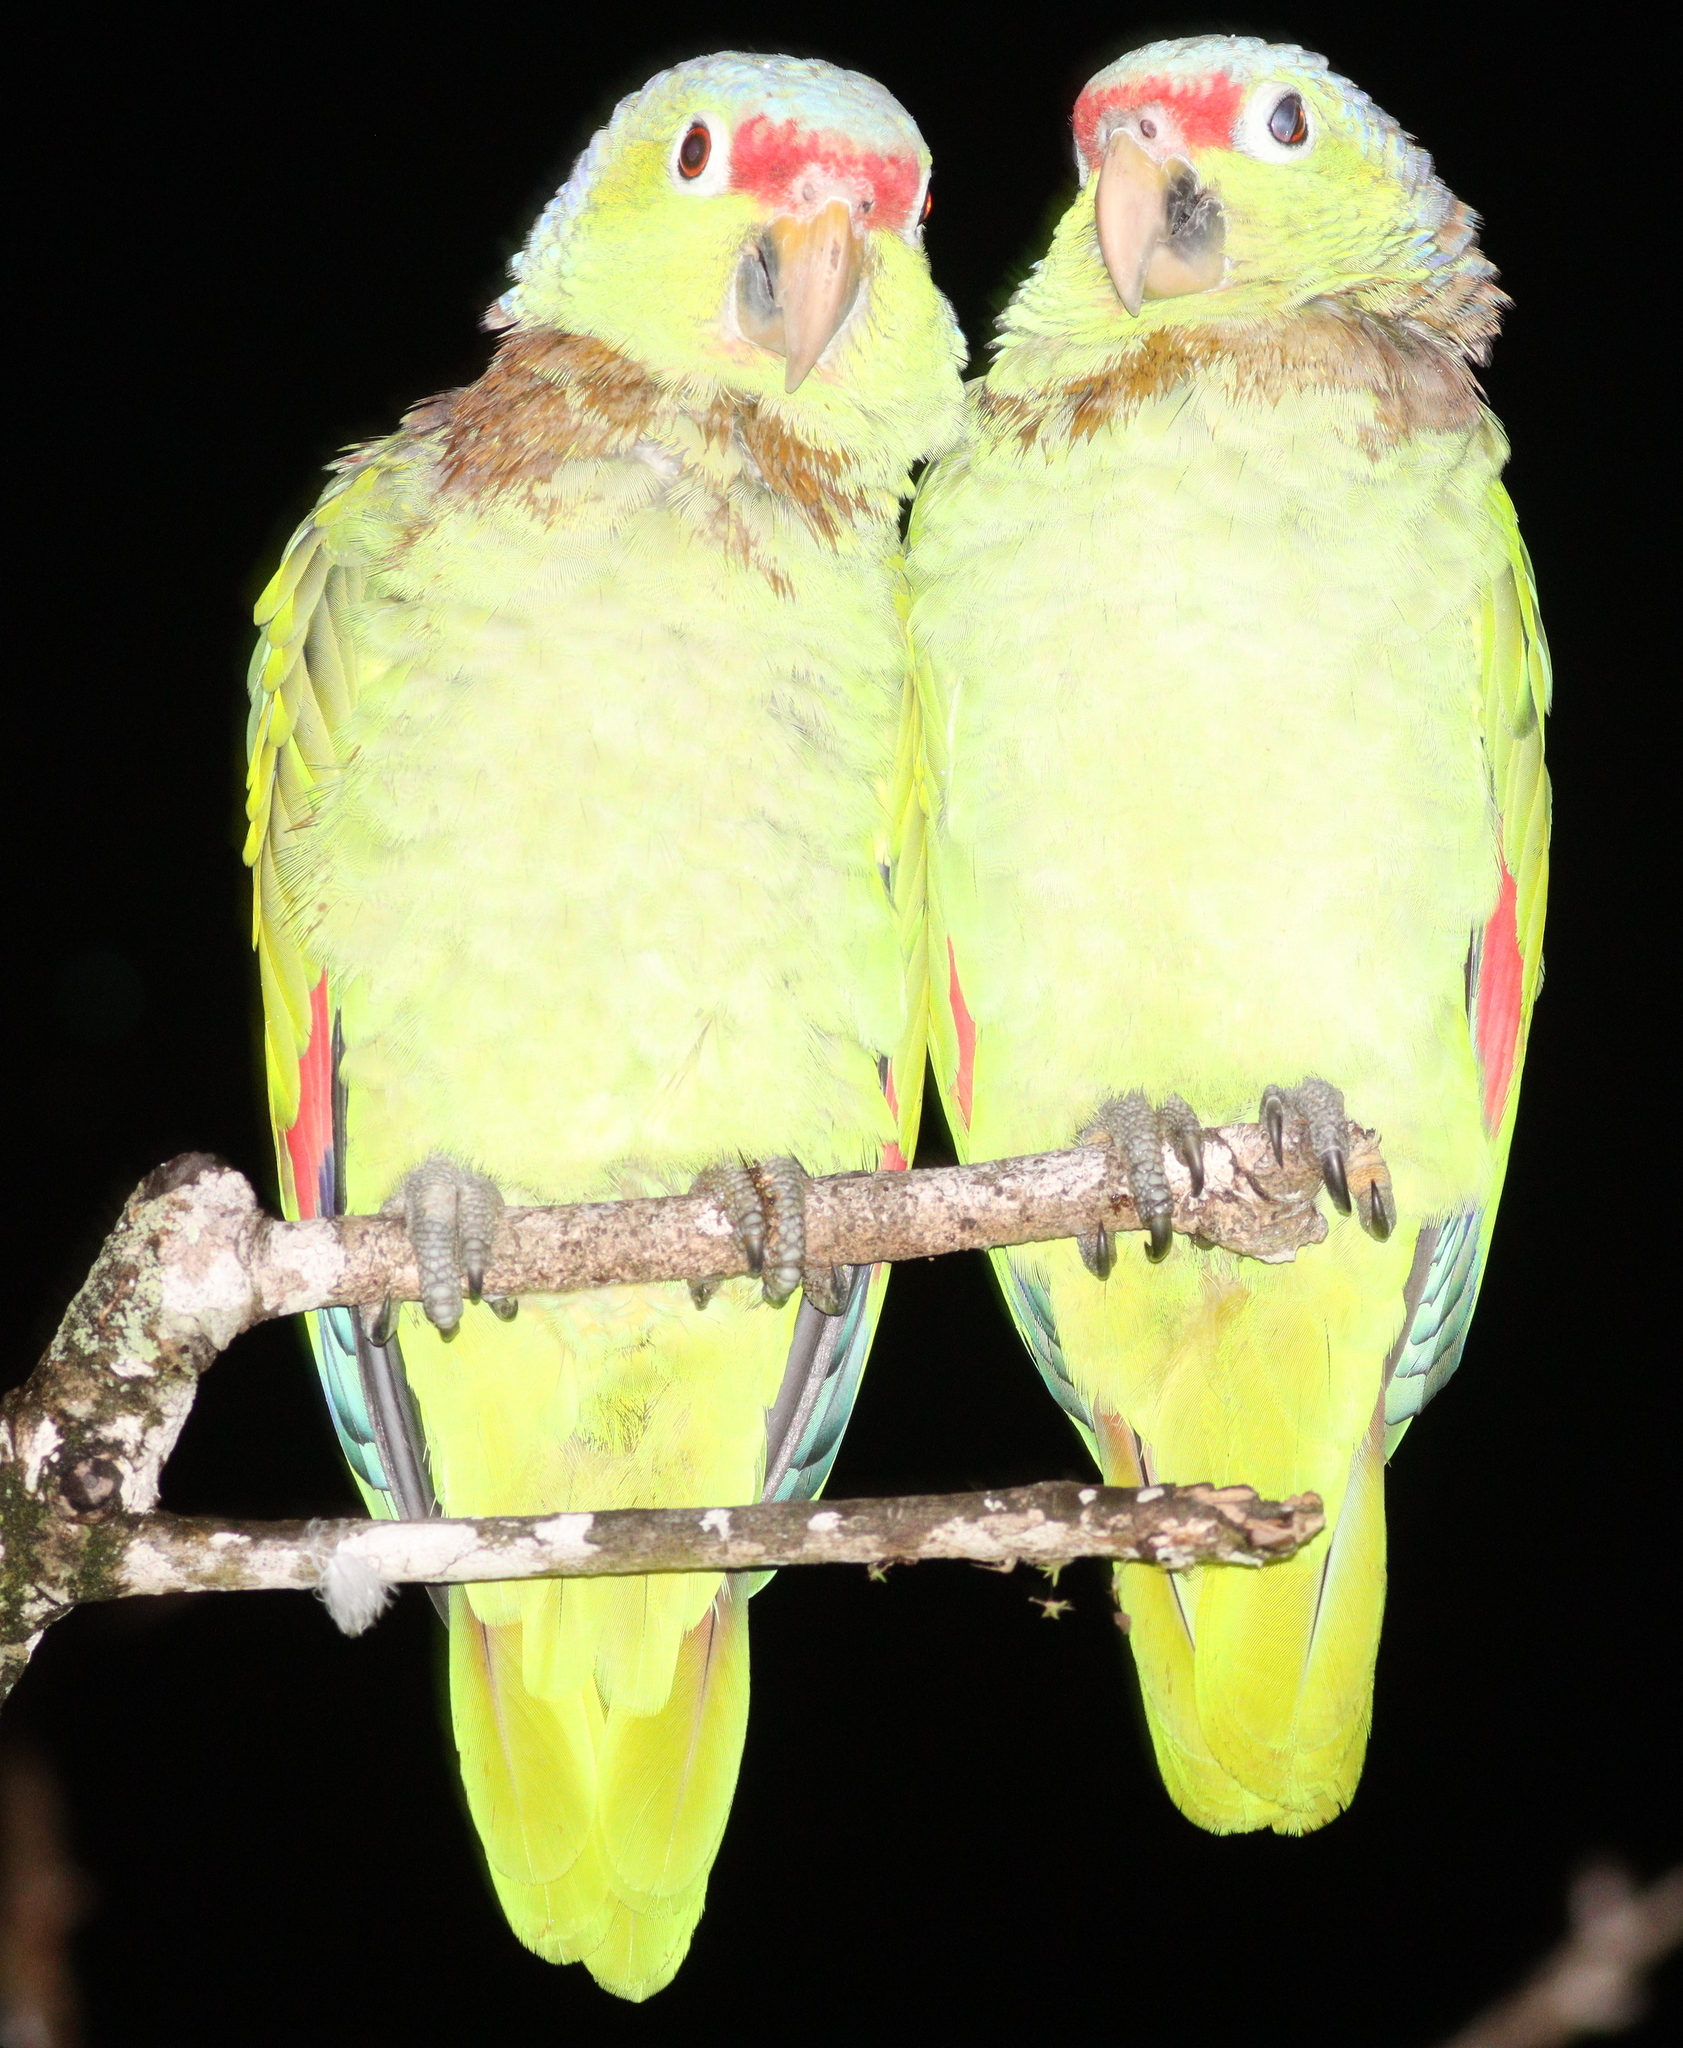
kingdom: Animalia
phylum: Chordata
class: Aves
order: Psittaciformes
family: Psittacidae
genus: Amazona
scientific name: Amazona autumnalis
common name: Red-lored amazon
